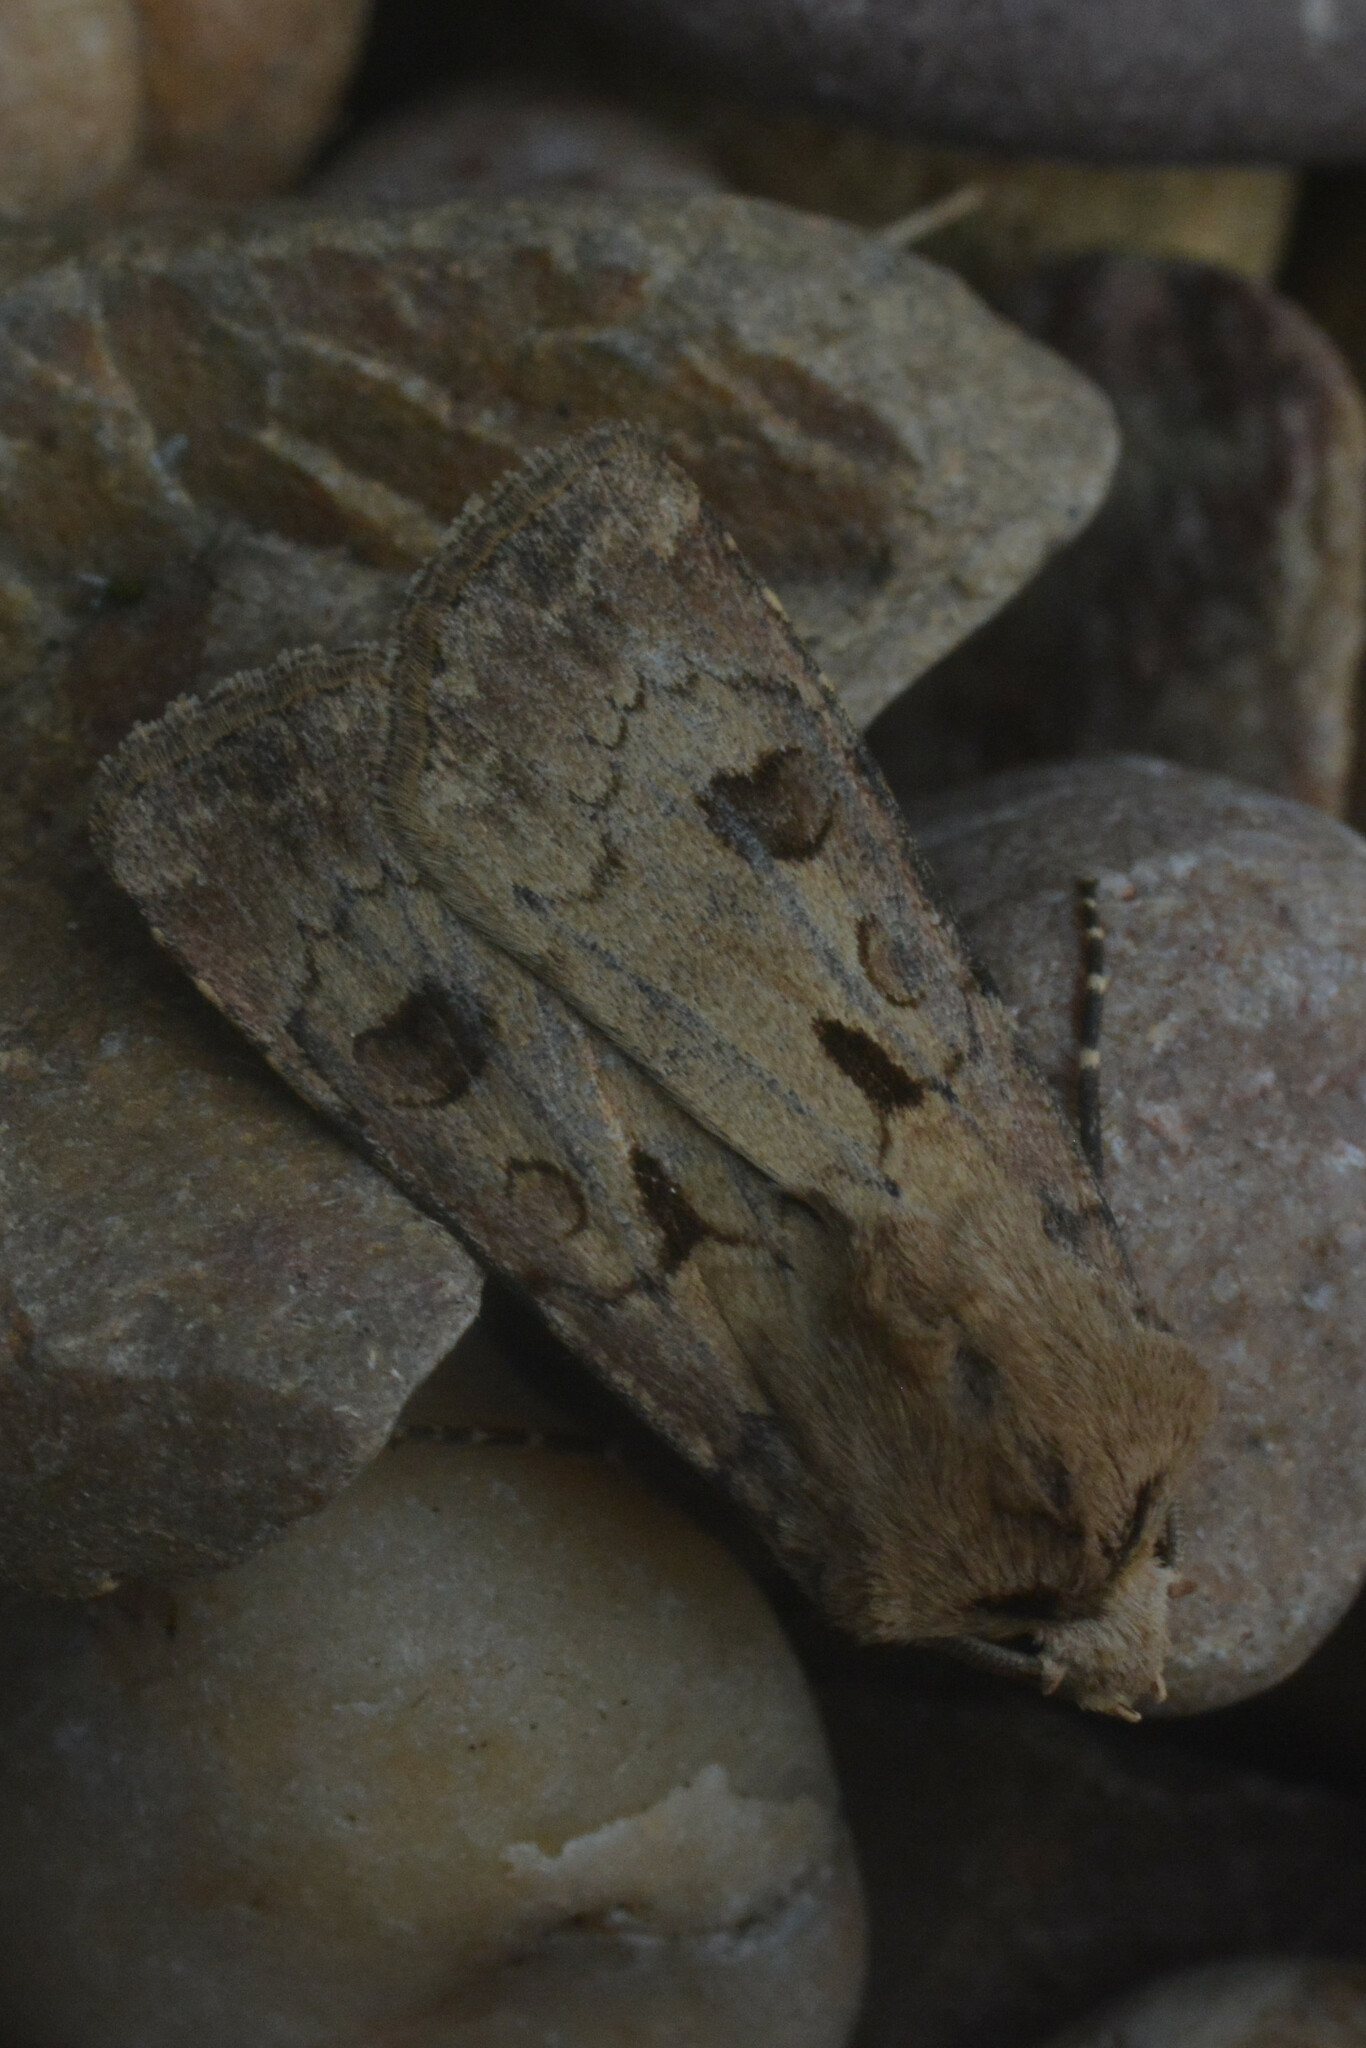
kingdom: Animalia
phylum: Arthropoda
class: Insecta
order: Lepidoptera
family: Noctuidae
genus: Agrotis
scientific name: Agrotis exclamationis
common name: Heart and dart
